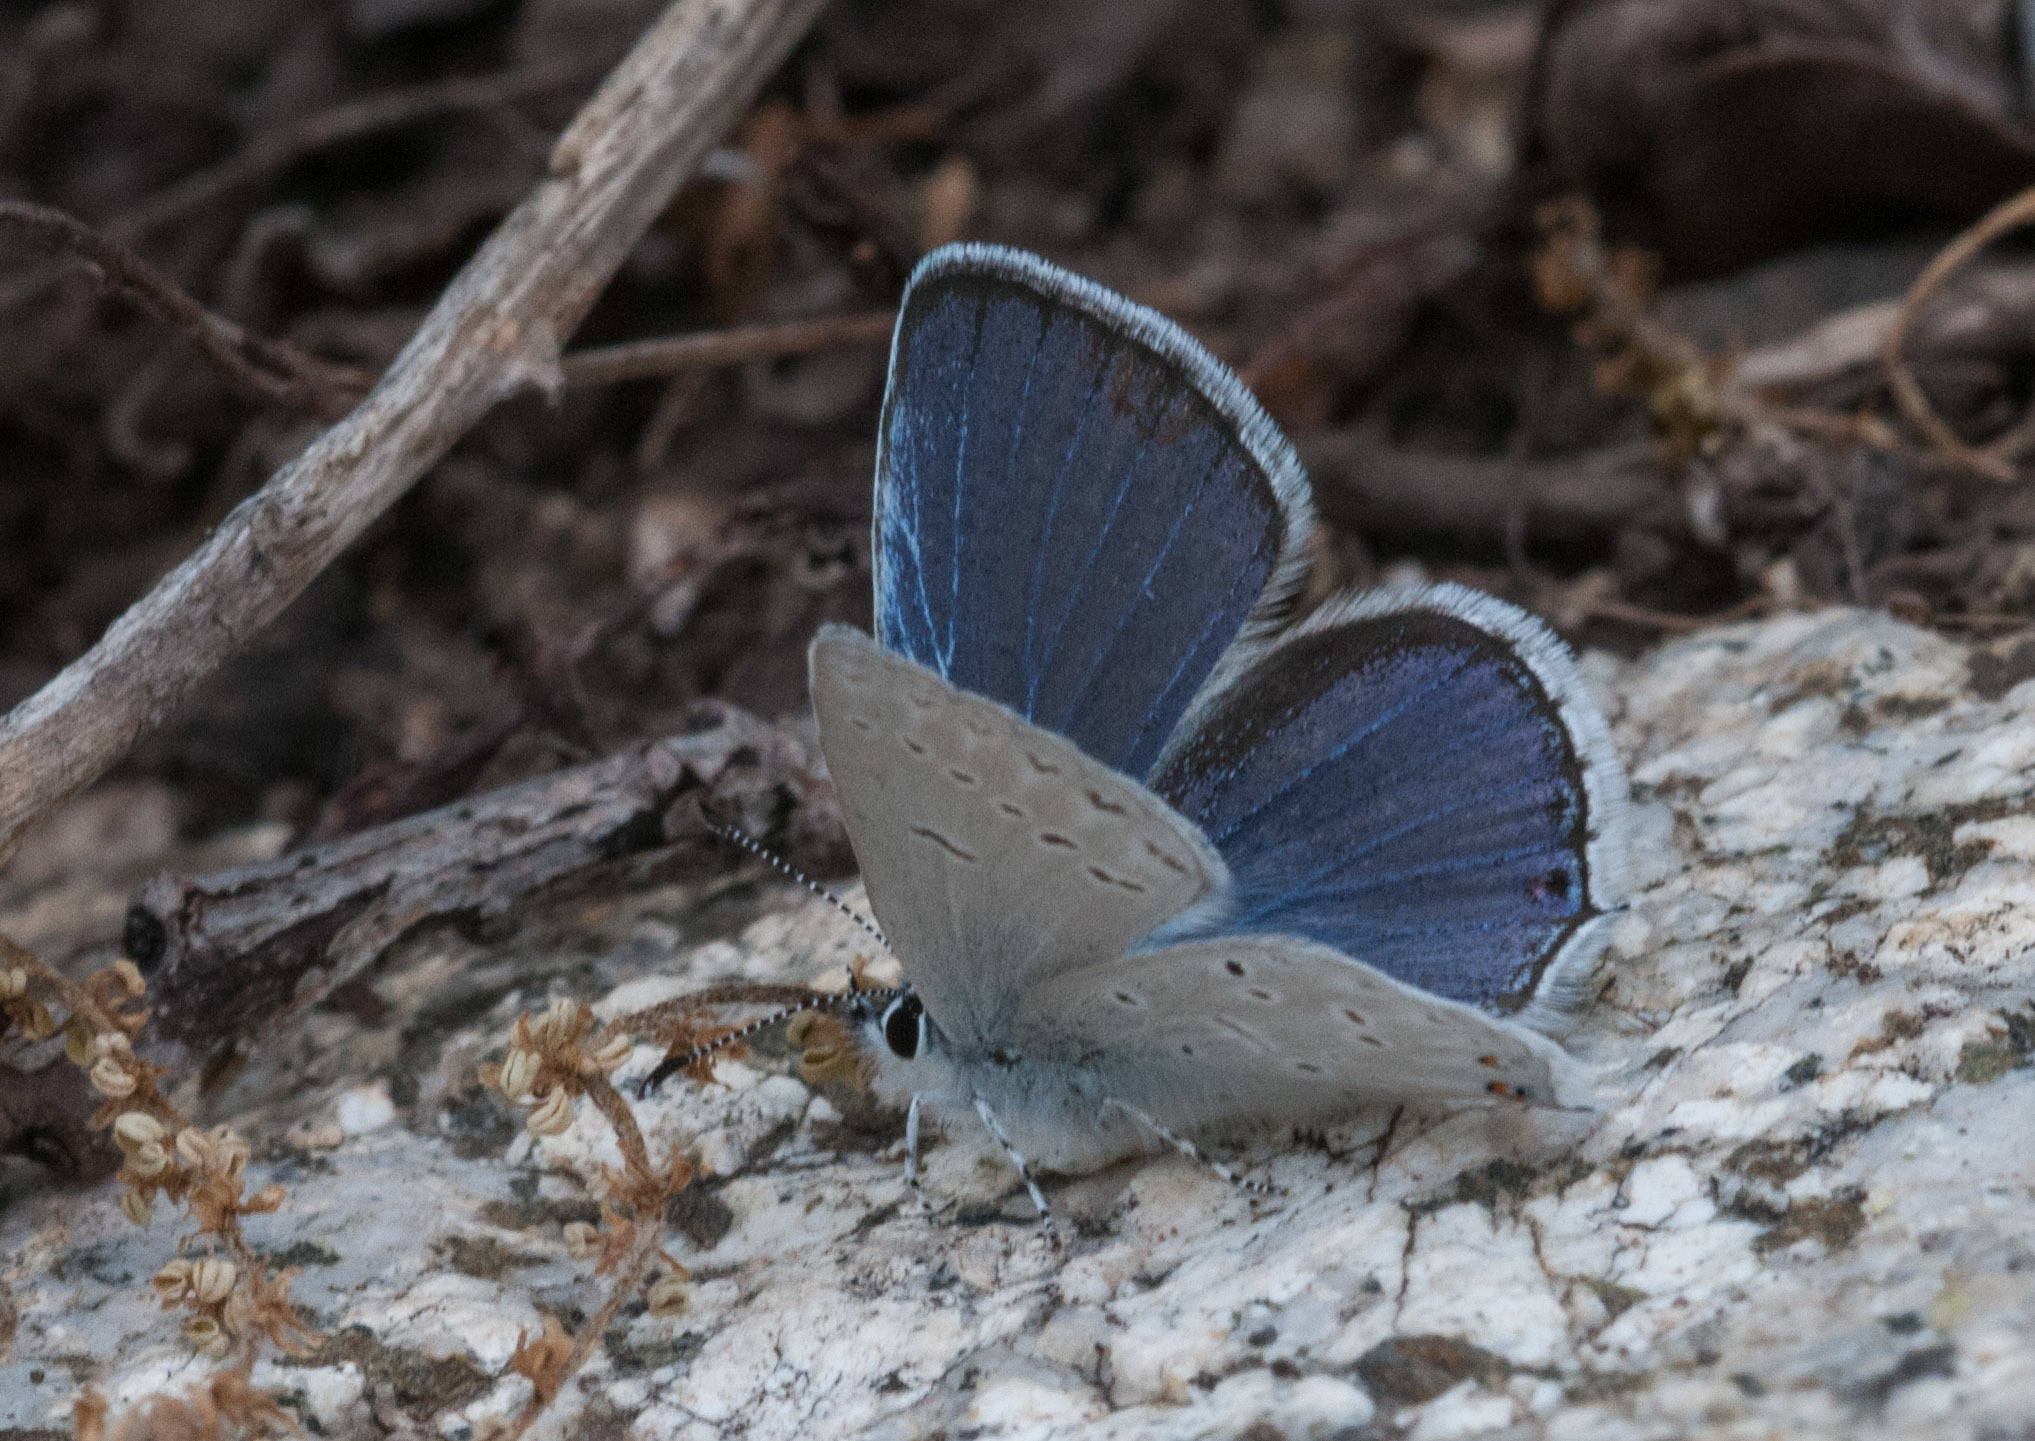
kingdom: Animalia
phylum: Arthropoda
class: Insecta
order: Lepidoptera
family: Lycaenidae
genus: Elkalyce
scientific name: Elkalyce amyntula
